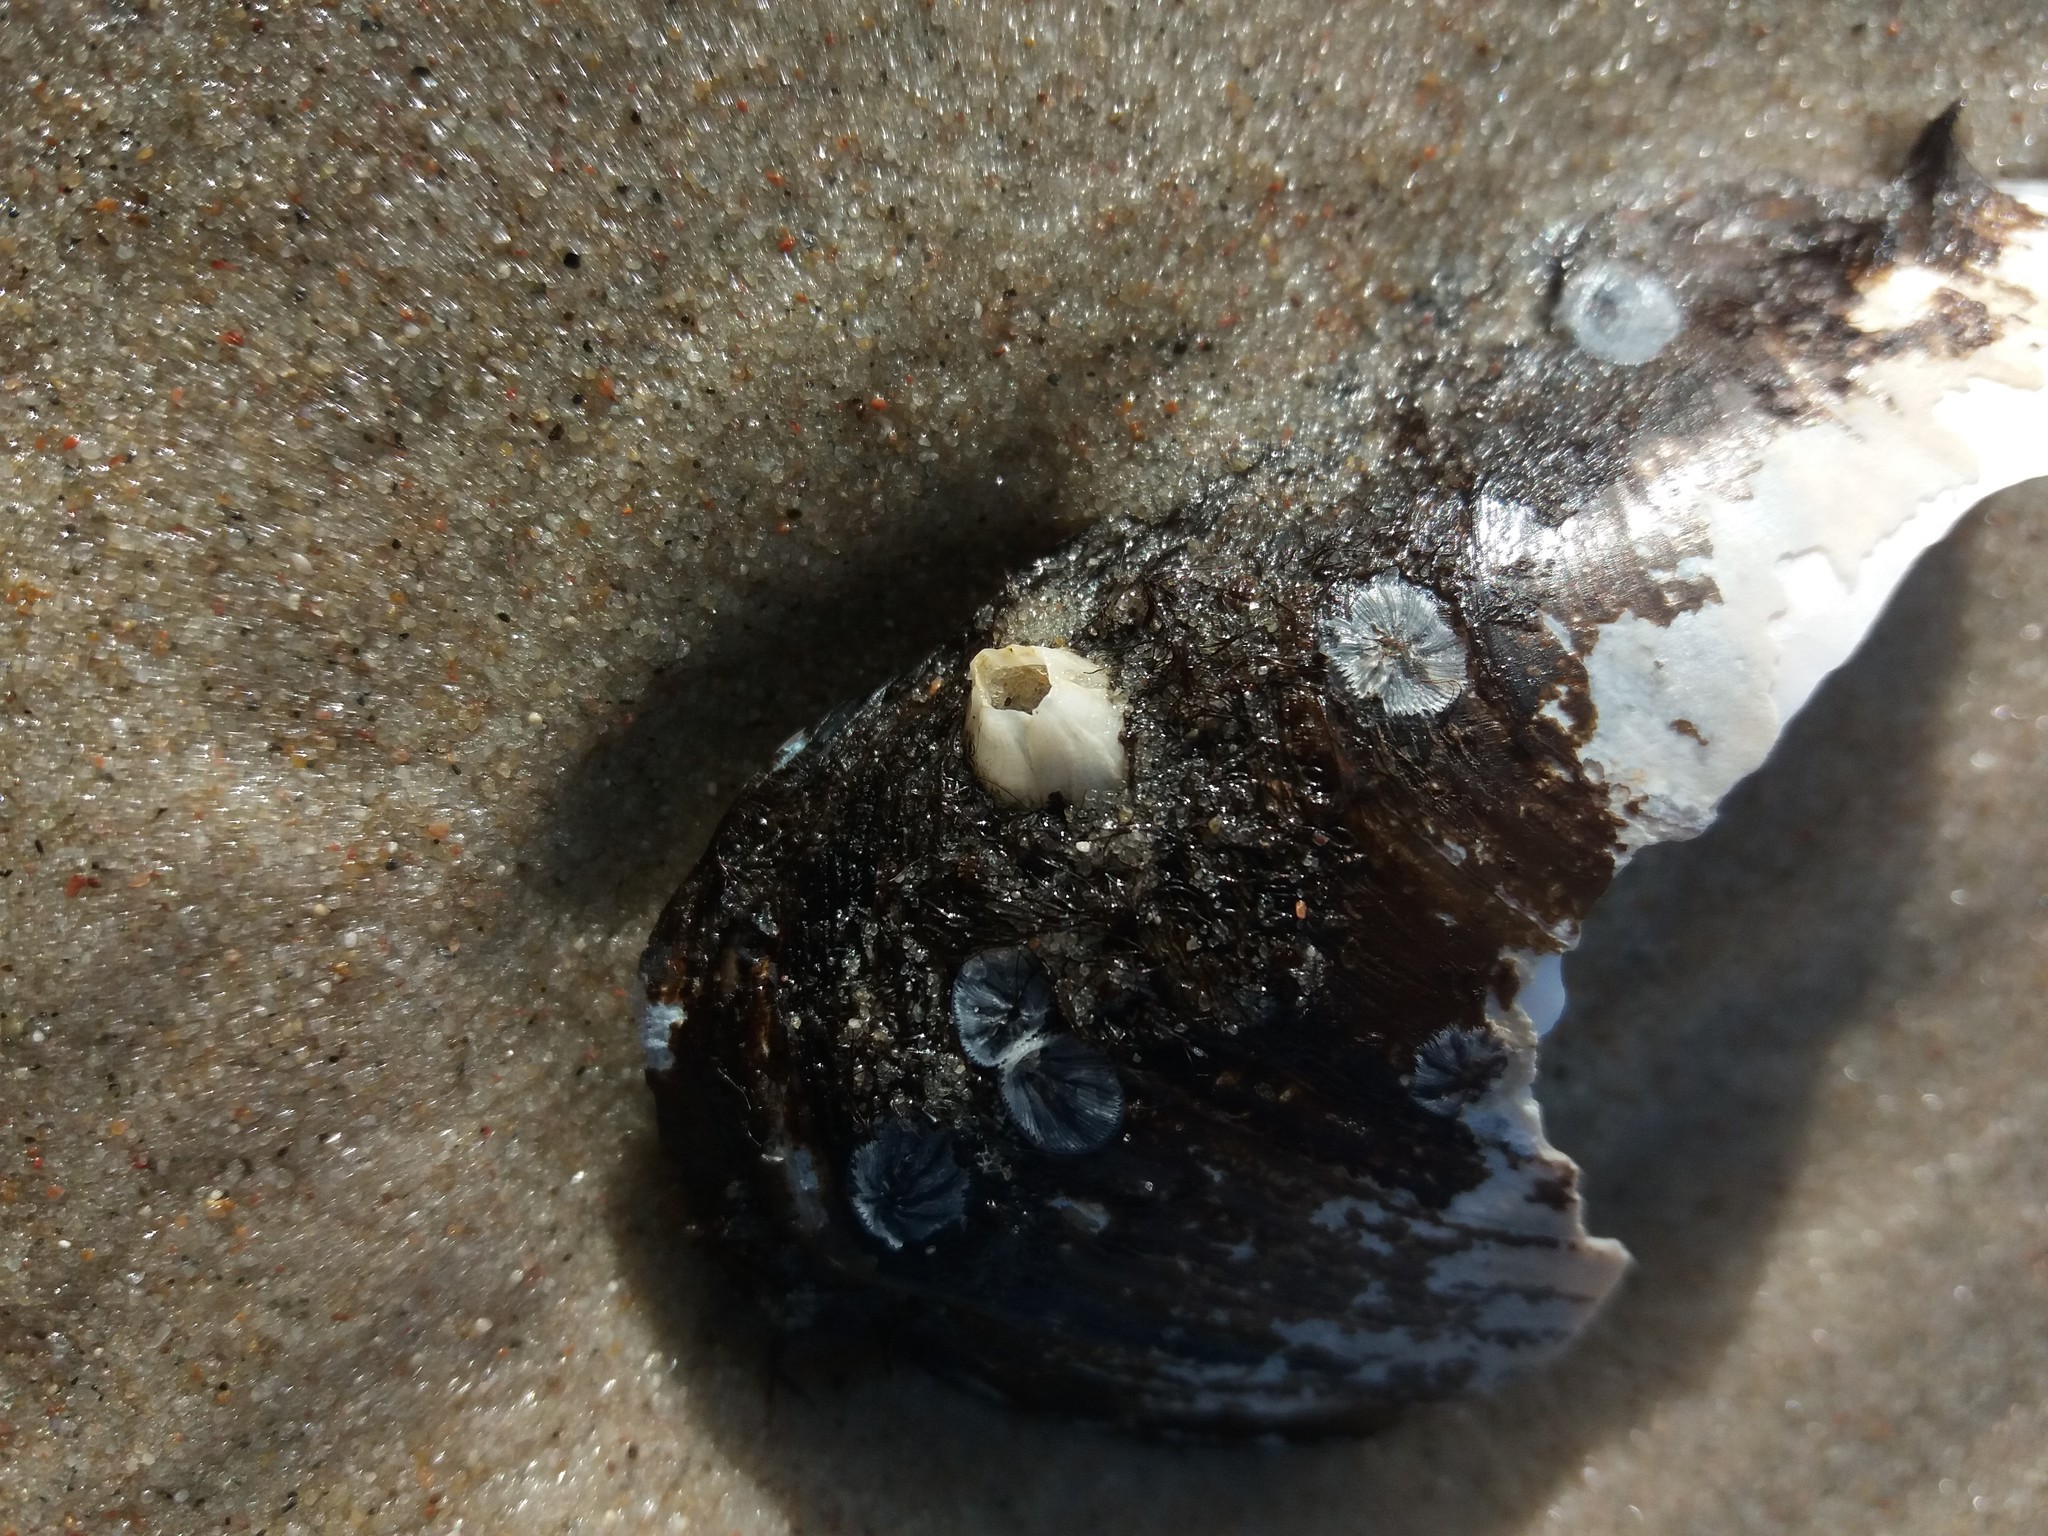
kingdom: Animalia
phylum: Arthropoda
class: Maxillopoda
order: Sessilia
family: Balanidae
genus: Amphibalanus
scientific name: Amphibalanus improvisus
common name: Bay barnacle
